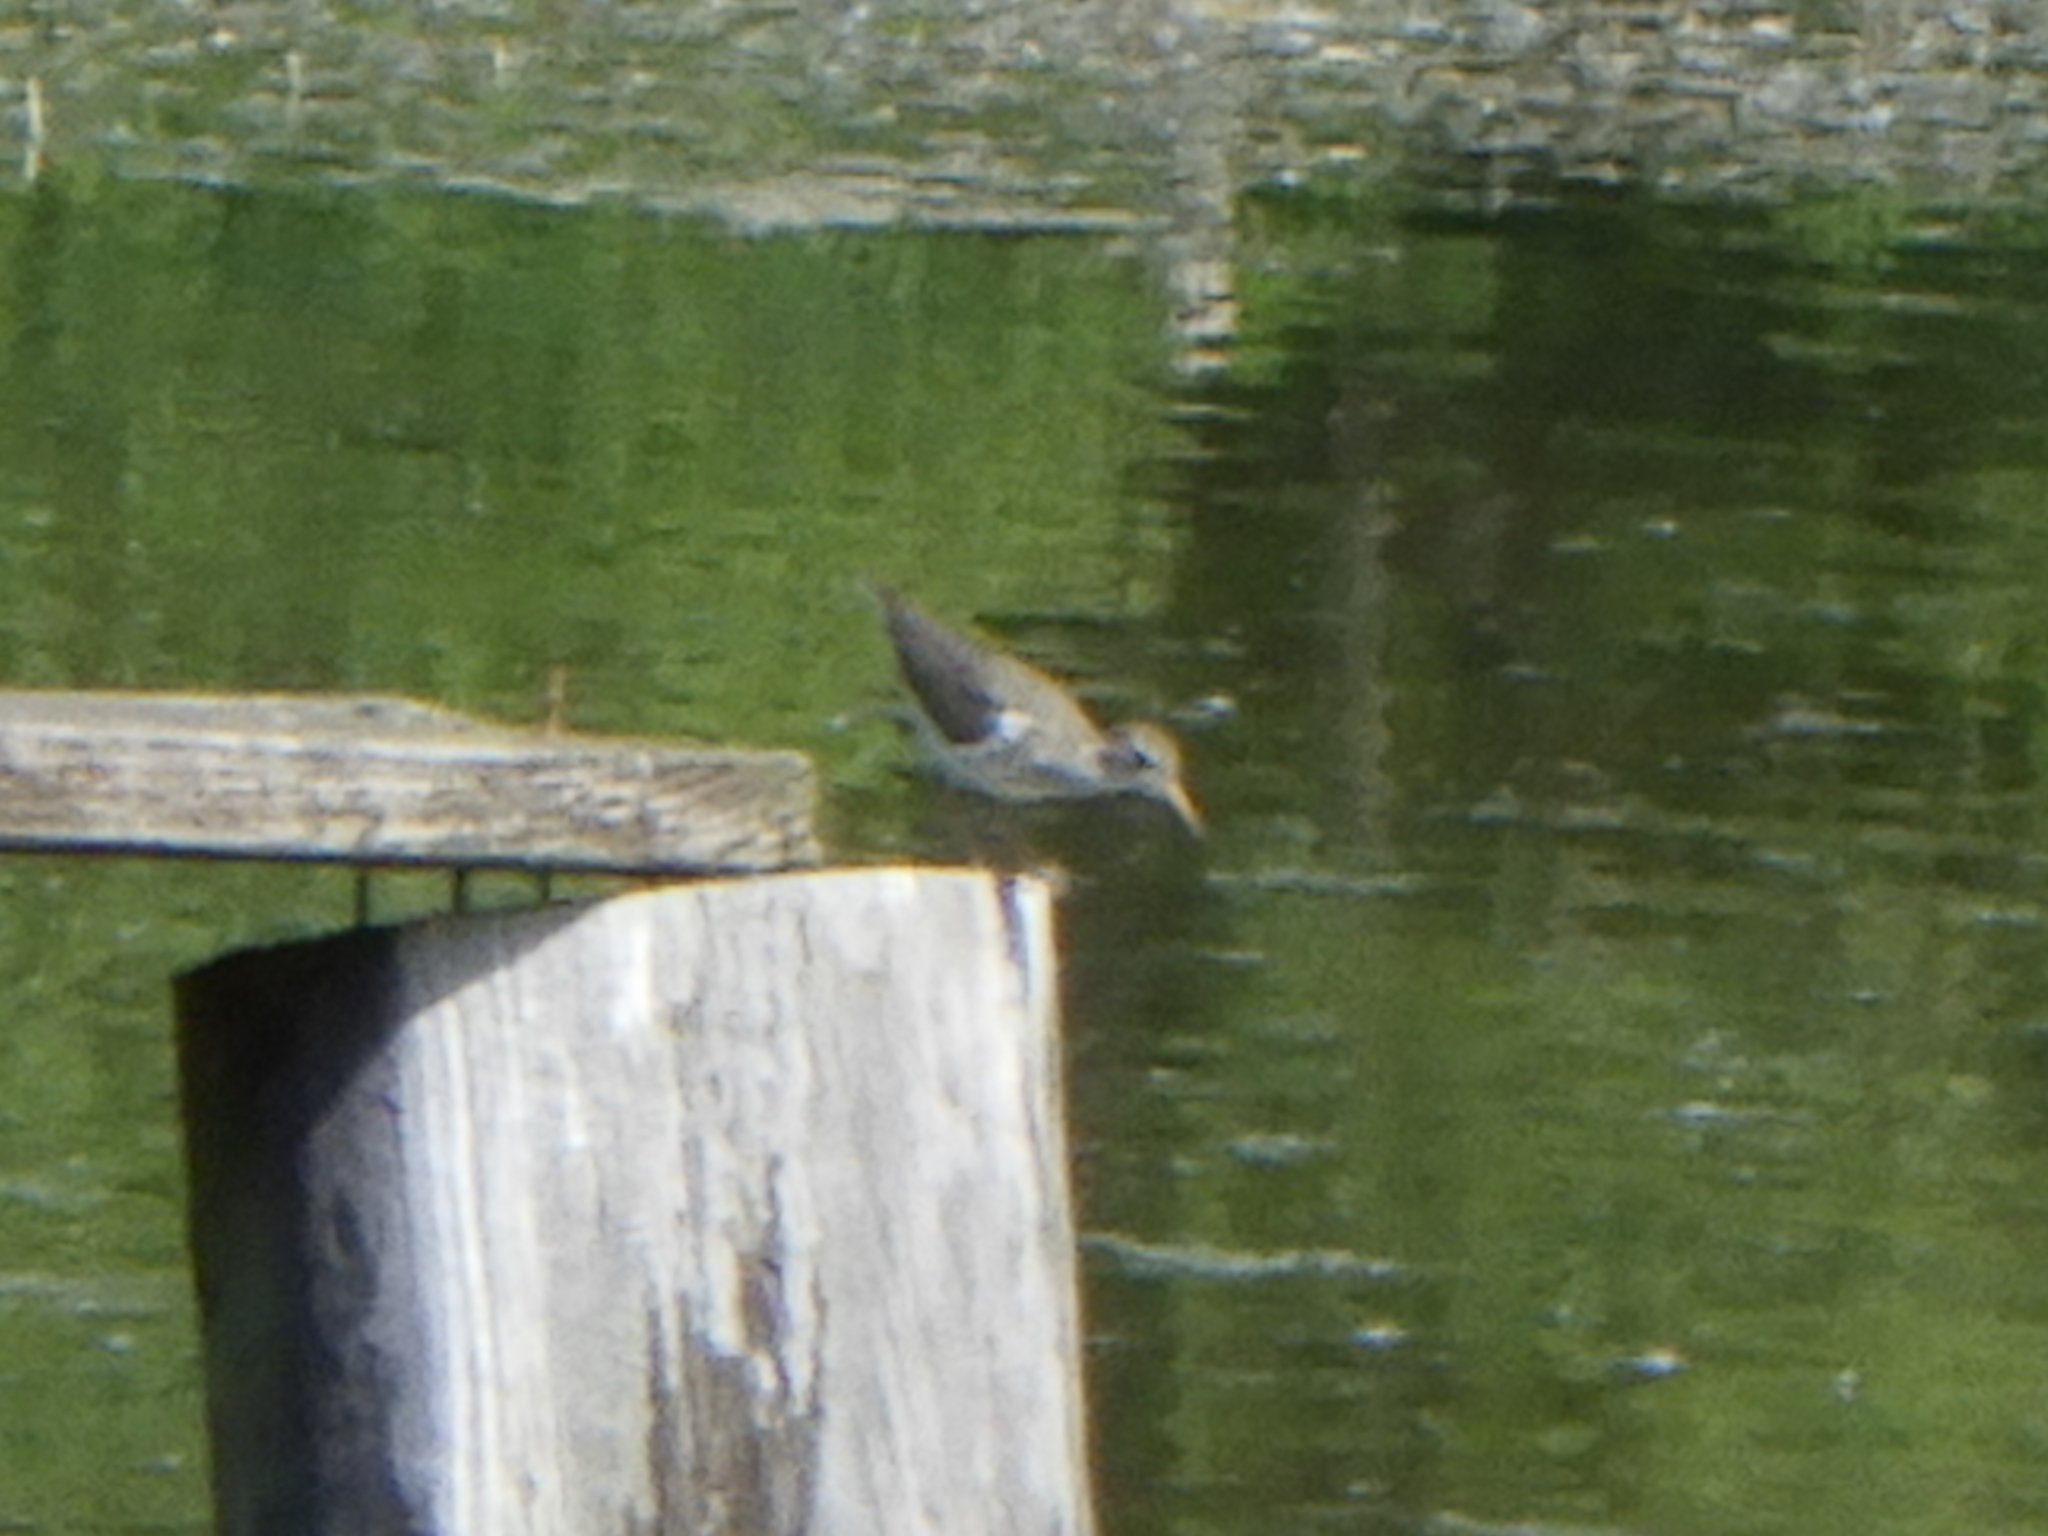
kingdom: Animalia
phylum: Chordata
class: Aves
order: Charadriiformes
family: Scolopacidae
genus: Actitis
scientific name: Actitis macularius
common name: Spotted sandpiper
